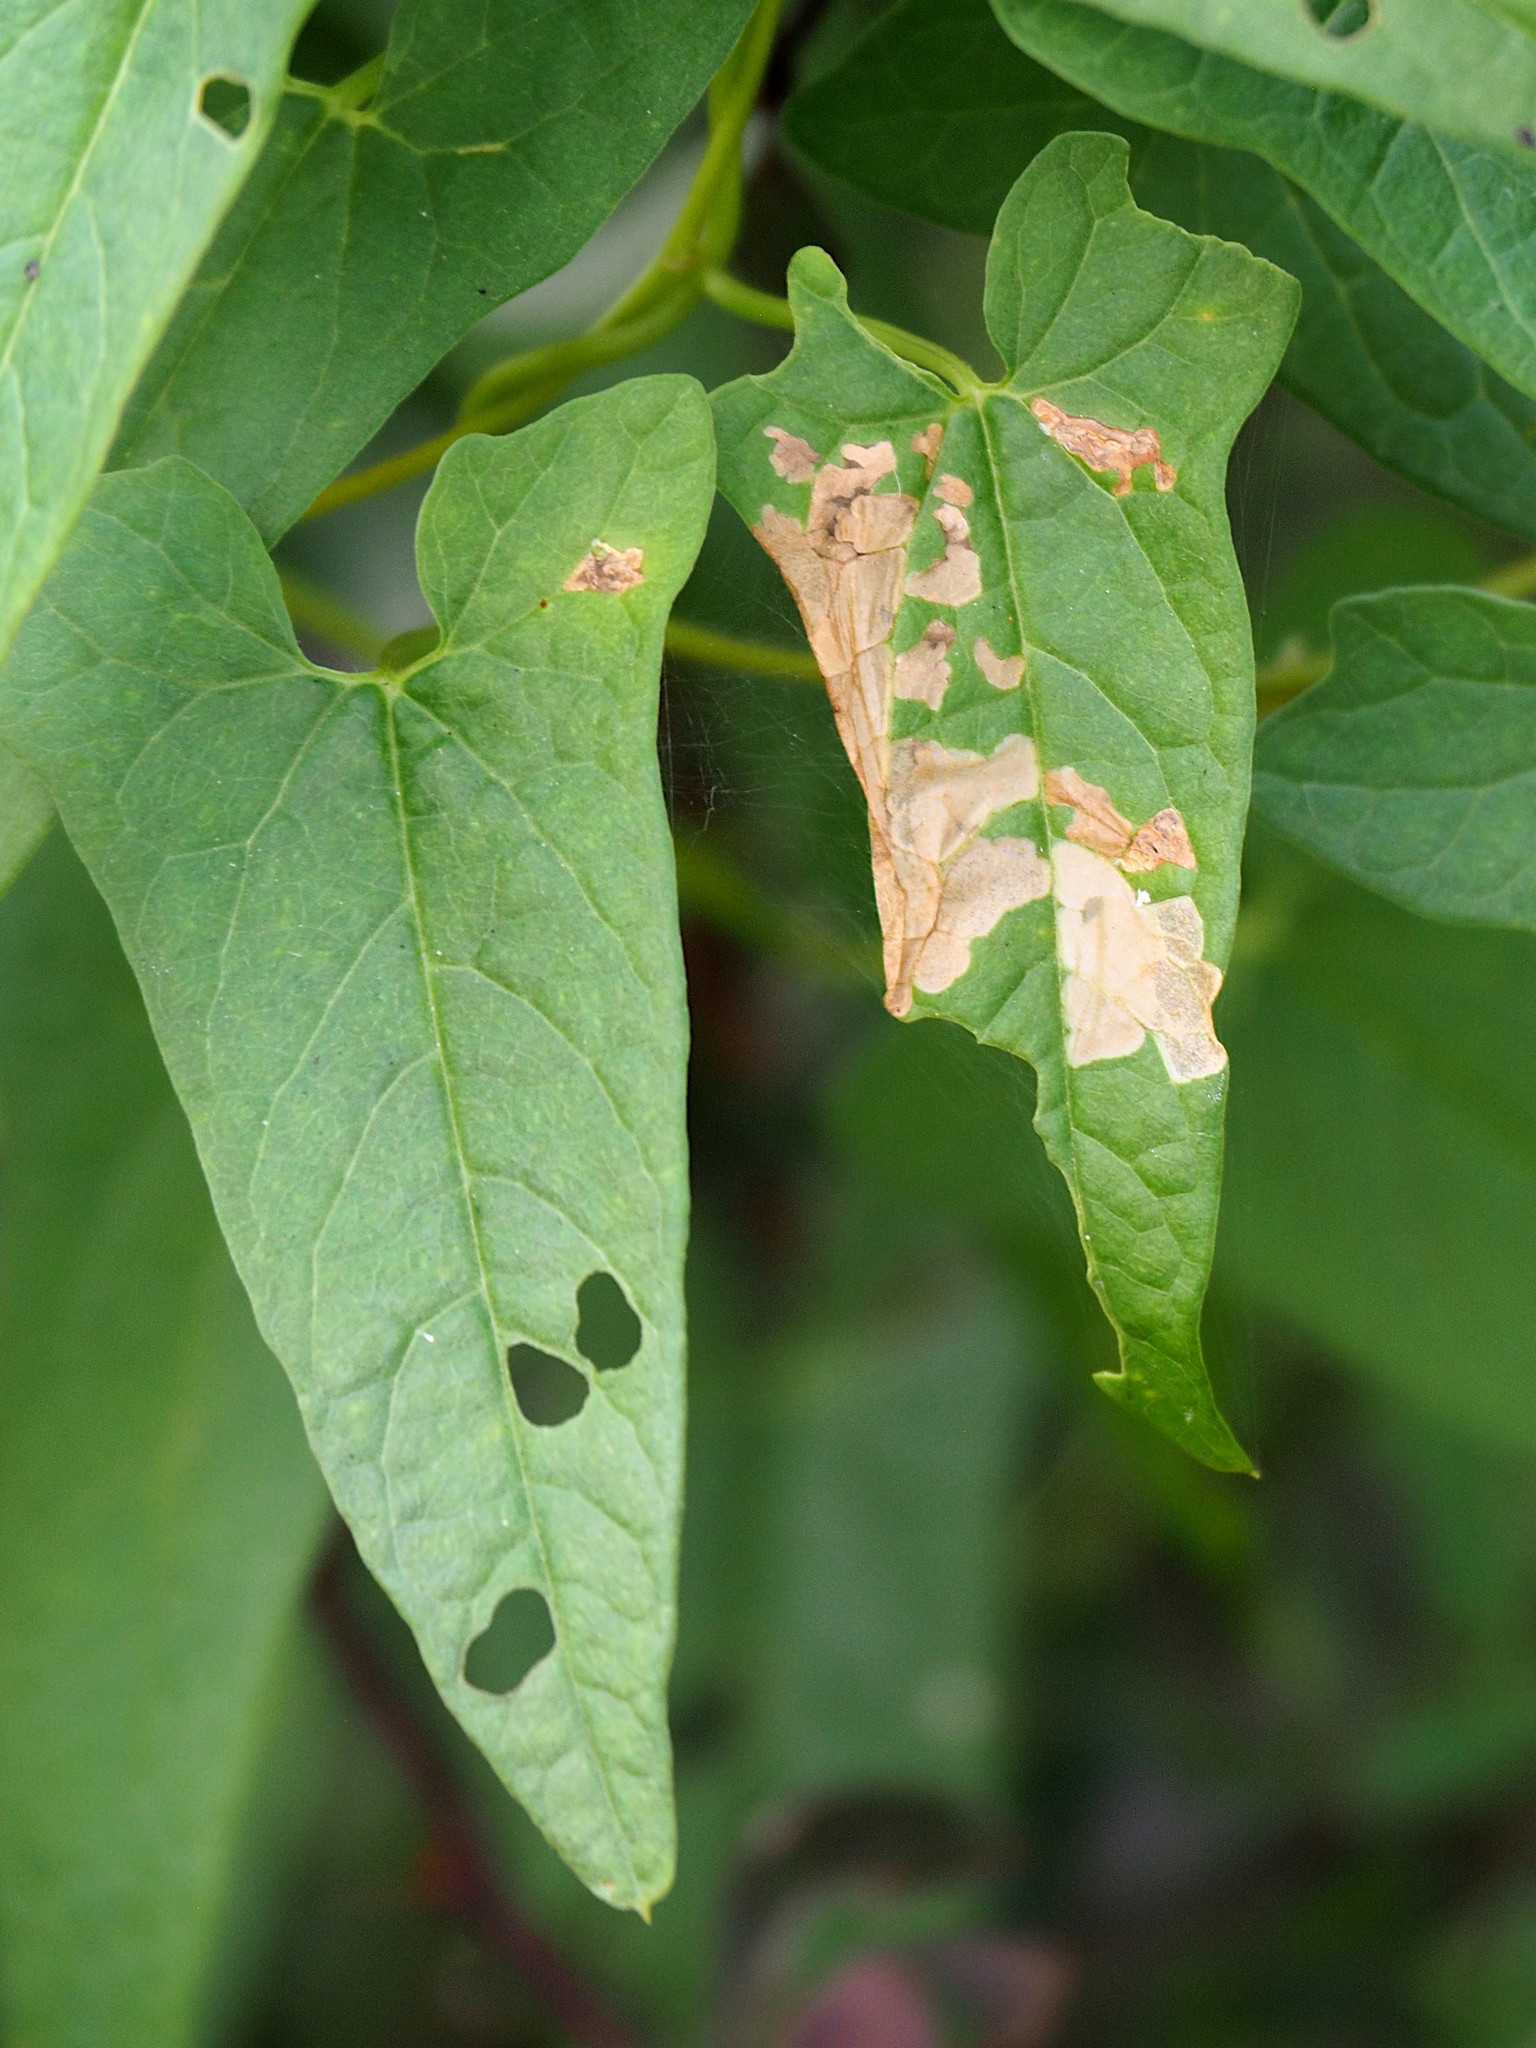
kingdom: Animalia
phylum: Arthropoda
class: Insecta
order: Lepidoptera
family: Bedelliidae
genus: Bedellia
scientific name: Bedellia somnulentella
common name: Morning-glory leafminer moth
